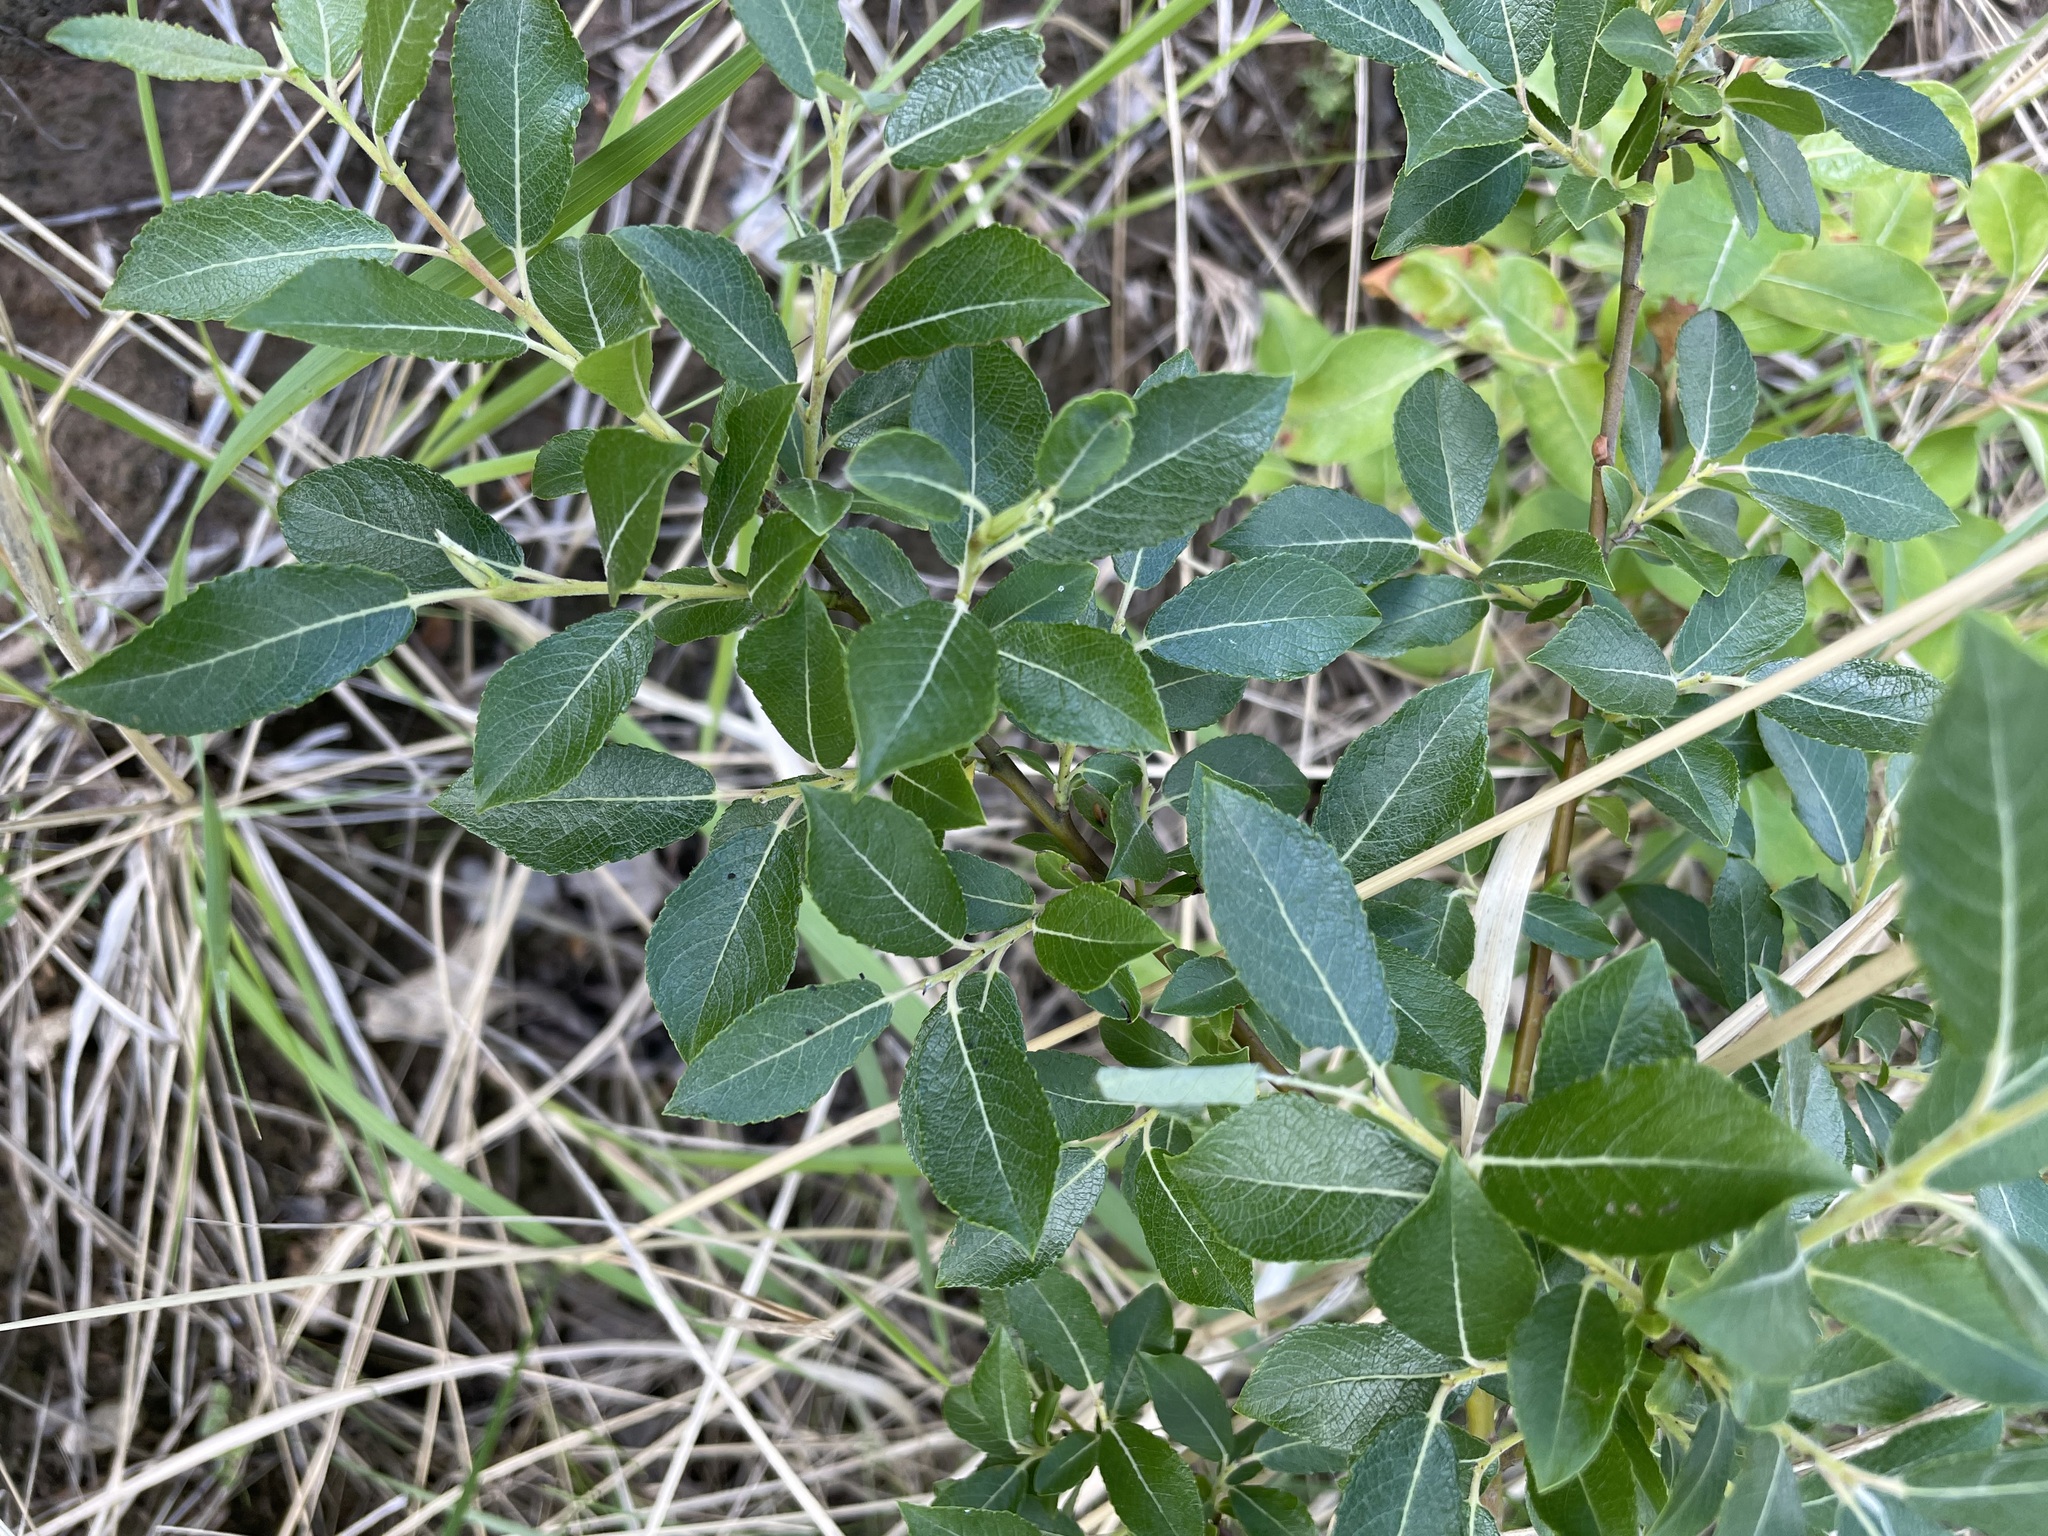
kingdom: Plantae
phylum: Tracheophyta
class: Magnoliopsida
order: Malpighiales
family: Salicaceae
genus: Salix
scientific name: Salix myrsinifolia
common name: Dark-leaved willow
